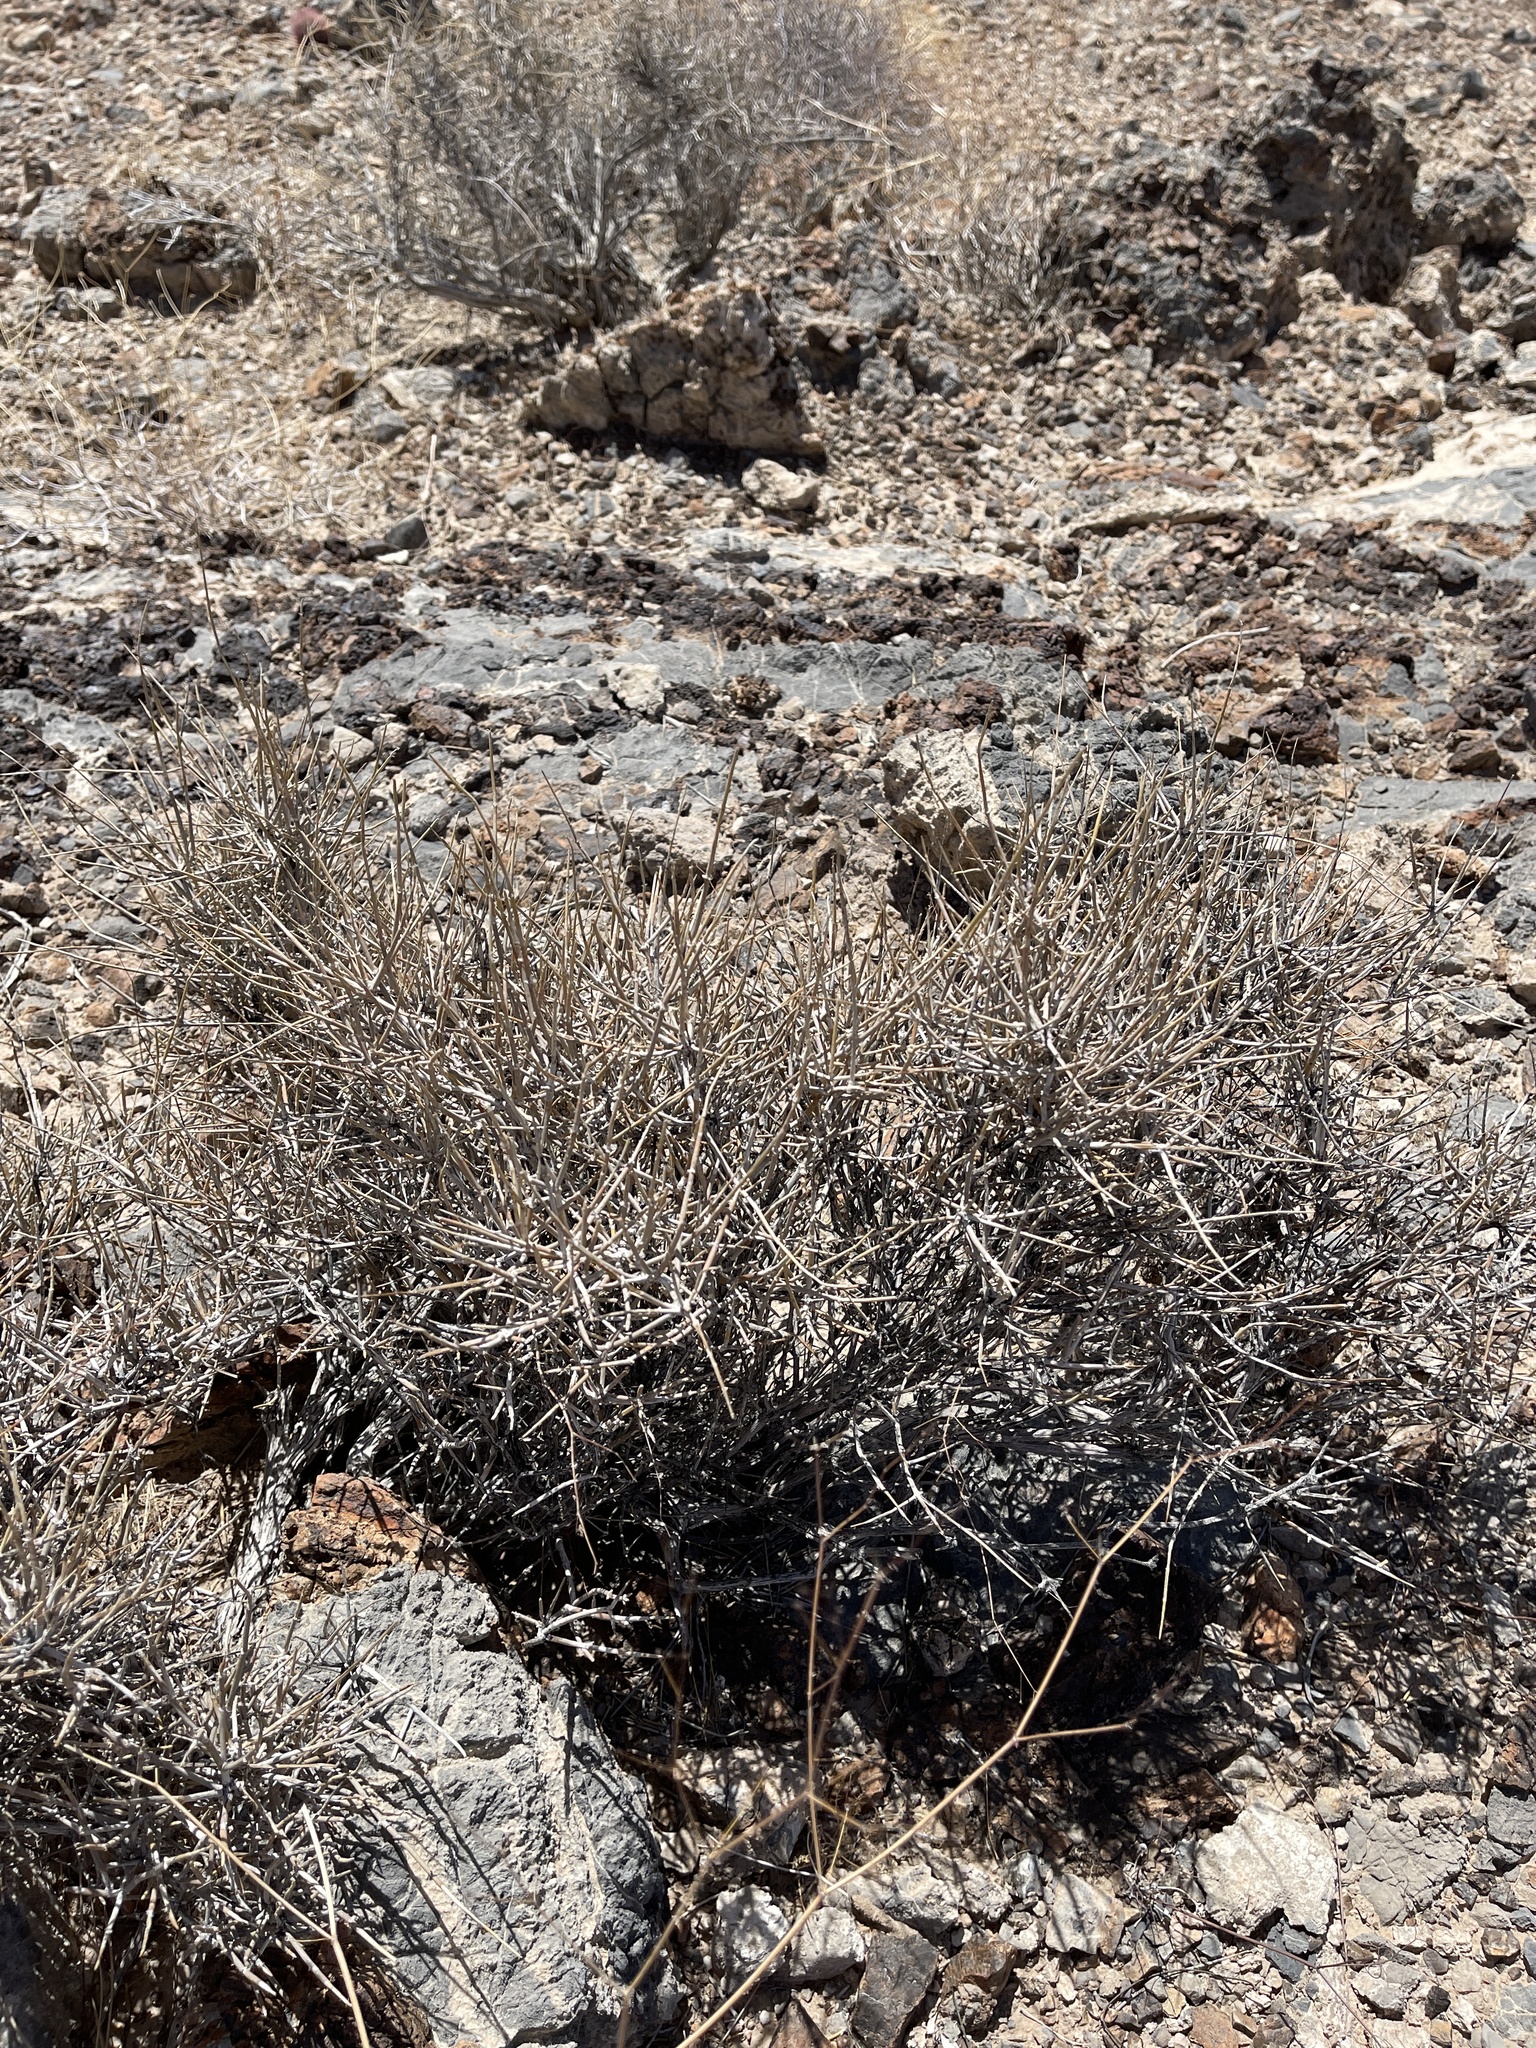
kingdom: Plantae
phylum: Tracheophyta
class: Gnetopsida
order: Ephedrales
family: Ephedraceae
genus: Ephedra
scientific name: Ephedra nevadensis
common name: Gray ephedra
